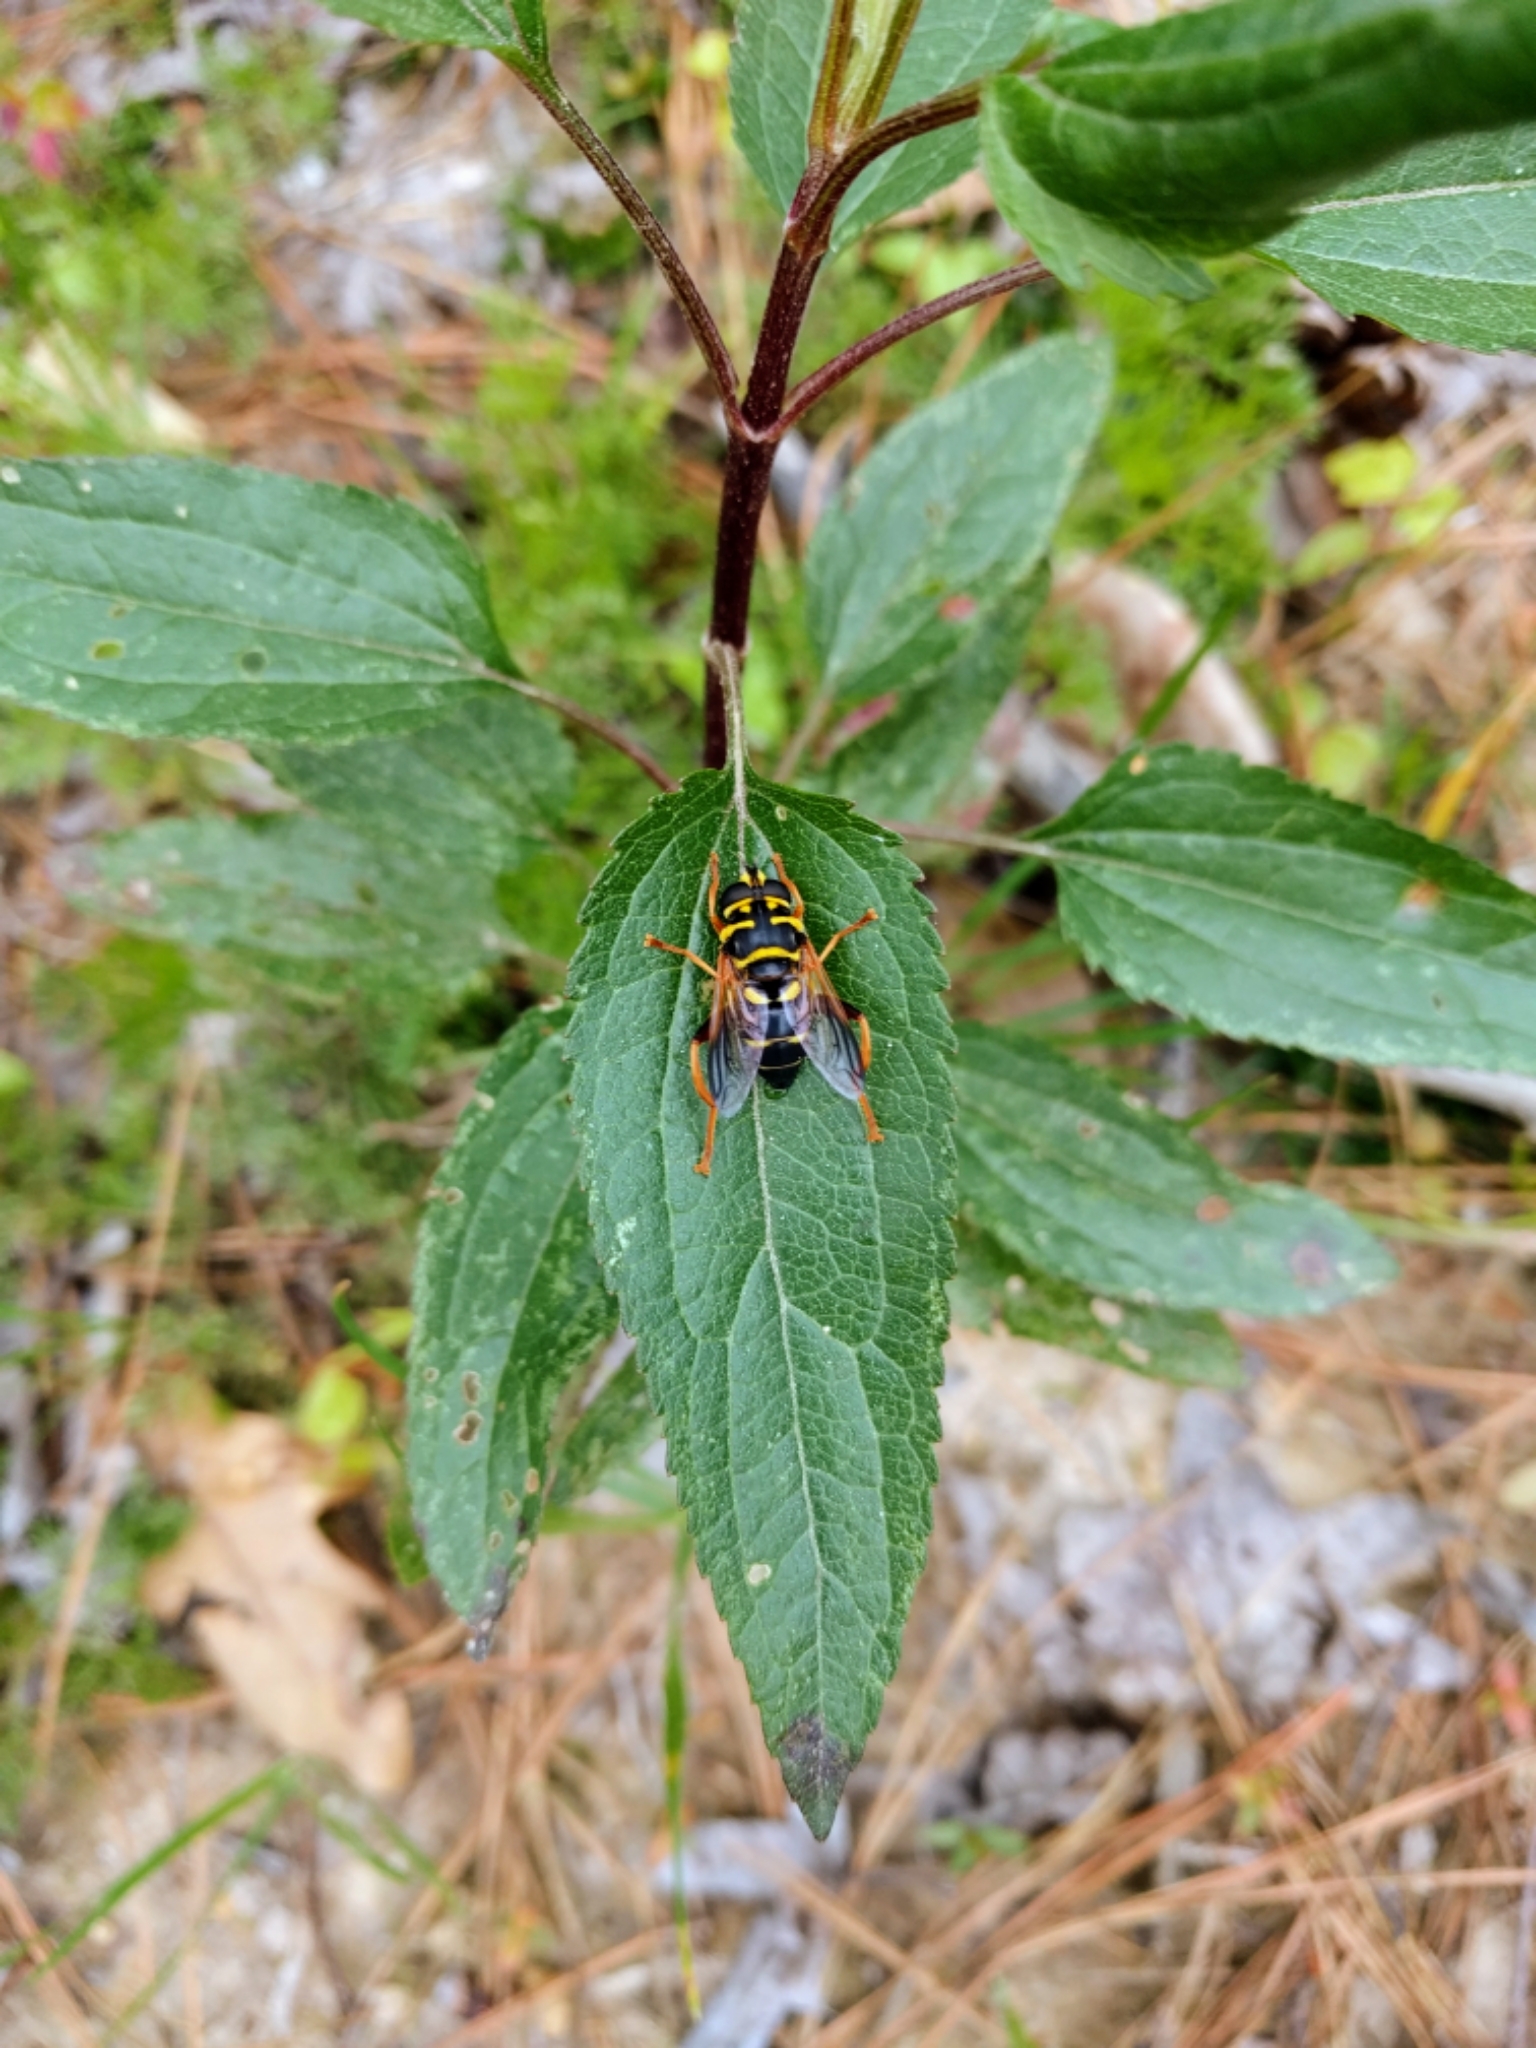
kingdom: Animalia
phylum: Arthropoda
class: Insecta
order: Diptera
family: Syrphidae
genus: Meromacrus
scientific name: Meromacrus acutus
